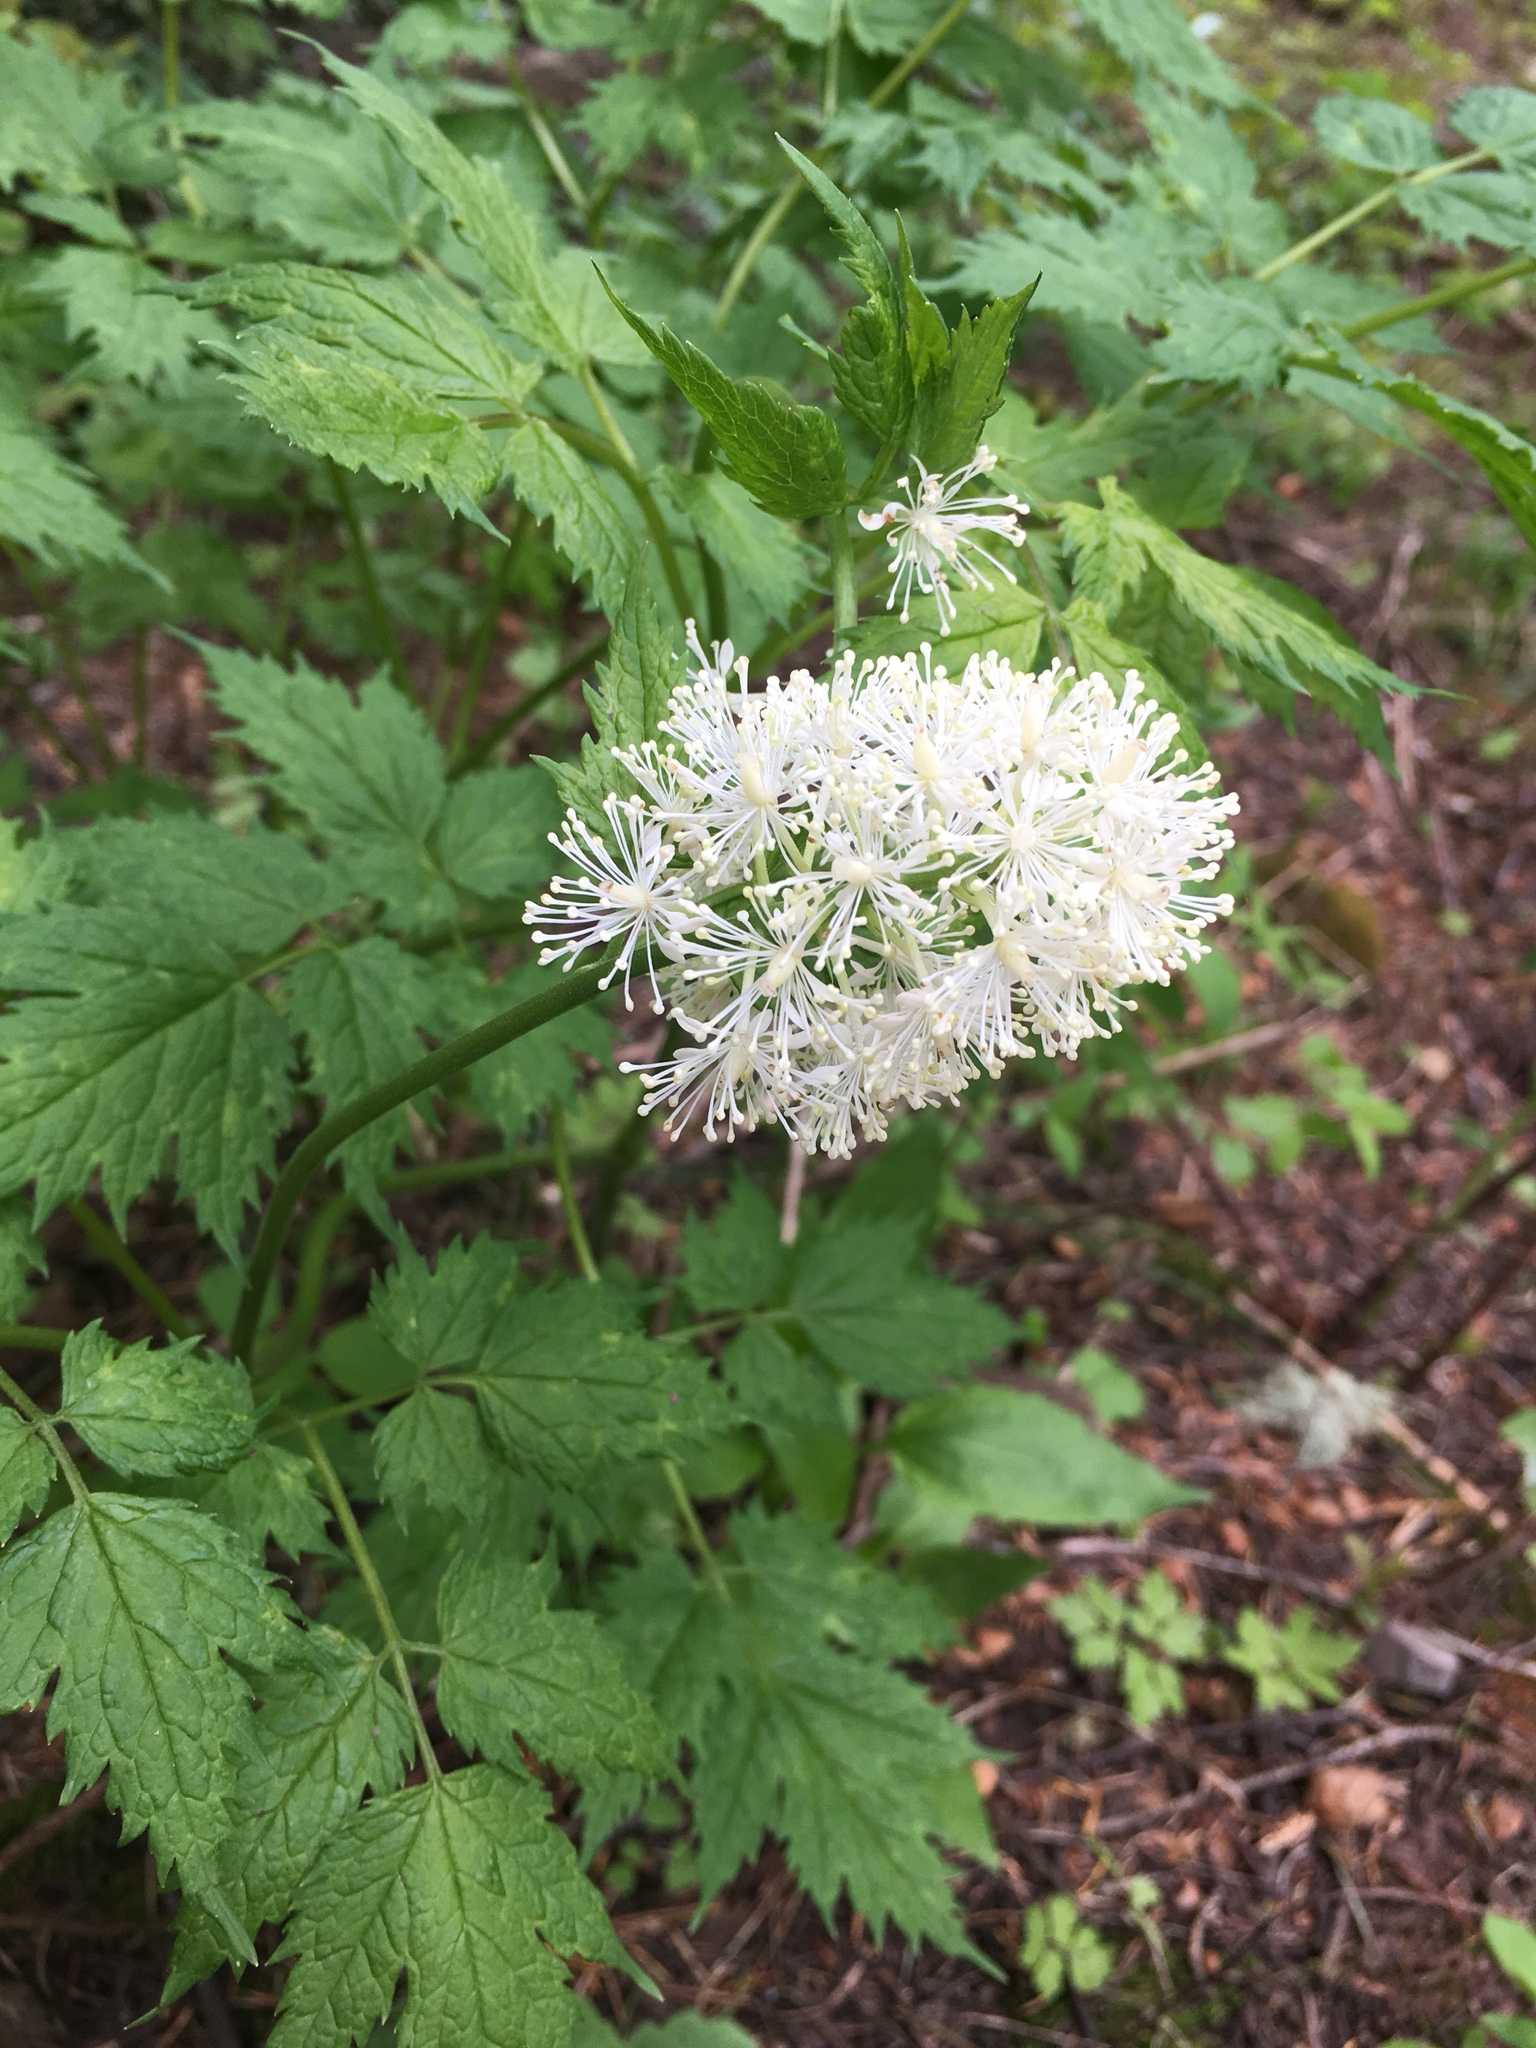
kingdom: Plantae
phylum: Tracheophyta
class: Magnoliopsida
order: Ranunculales
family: Ranunculaceae
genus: Actaea
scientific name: Actaea rubra
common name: Red baneberry
